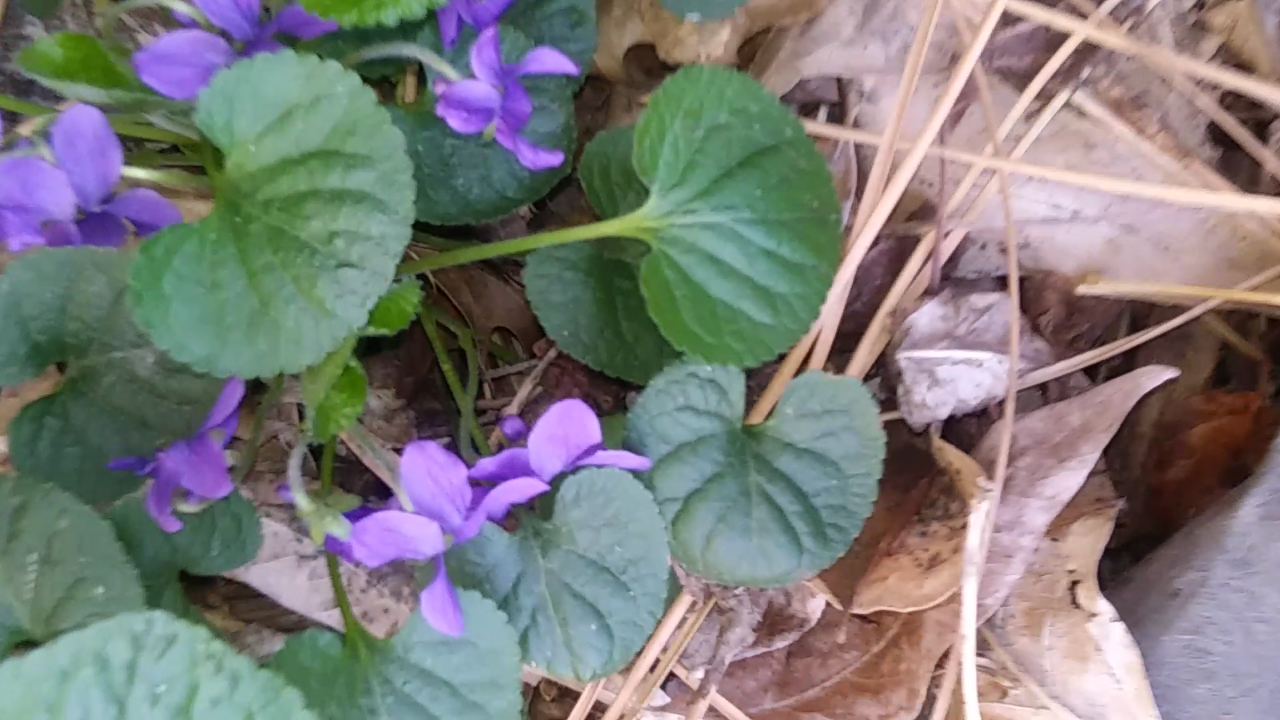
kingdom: Plantae
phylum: Tracheophyta
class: Magnoliopsida
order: Malpighiales
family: Violaceae
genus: Viola
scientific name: Viola odorata
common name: Sweet violet
